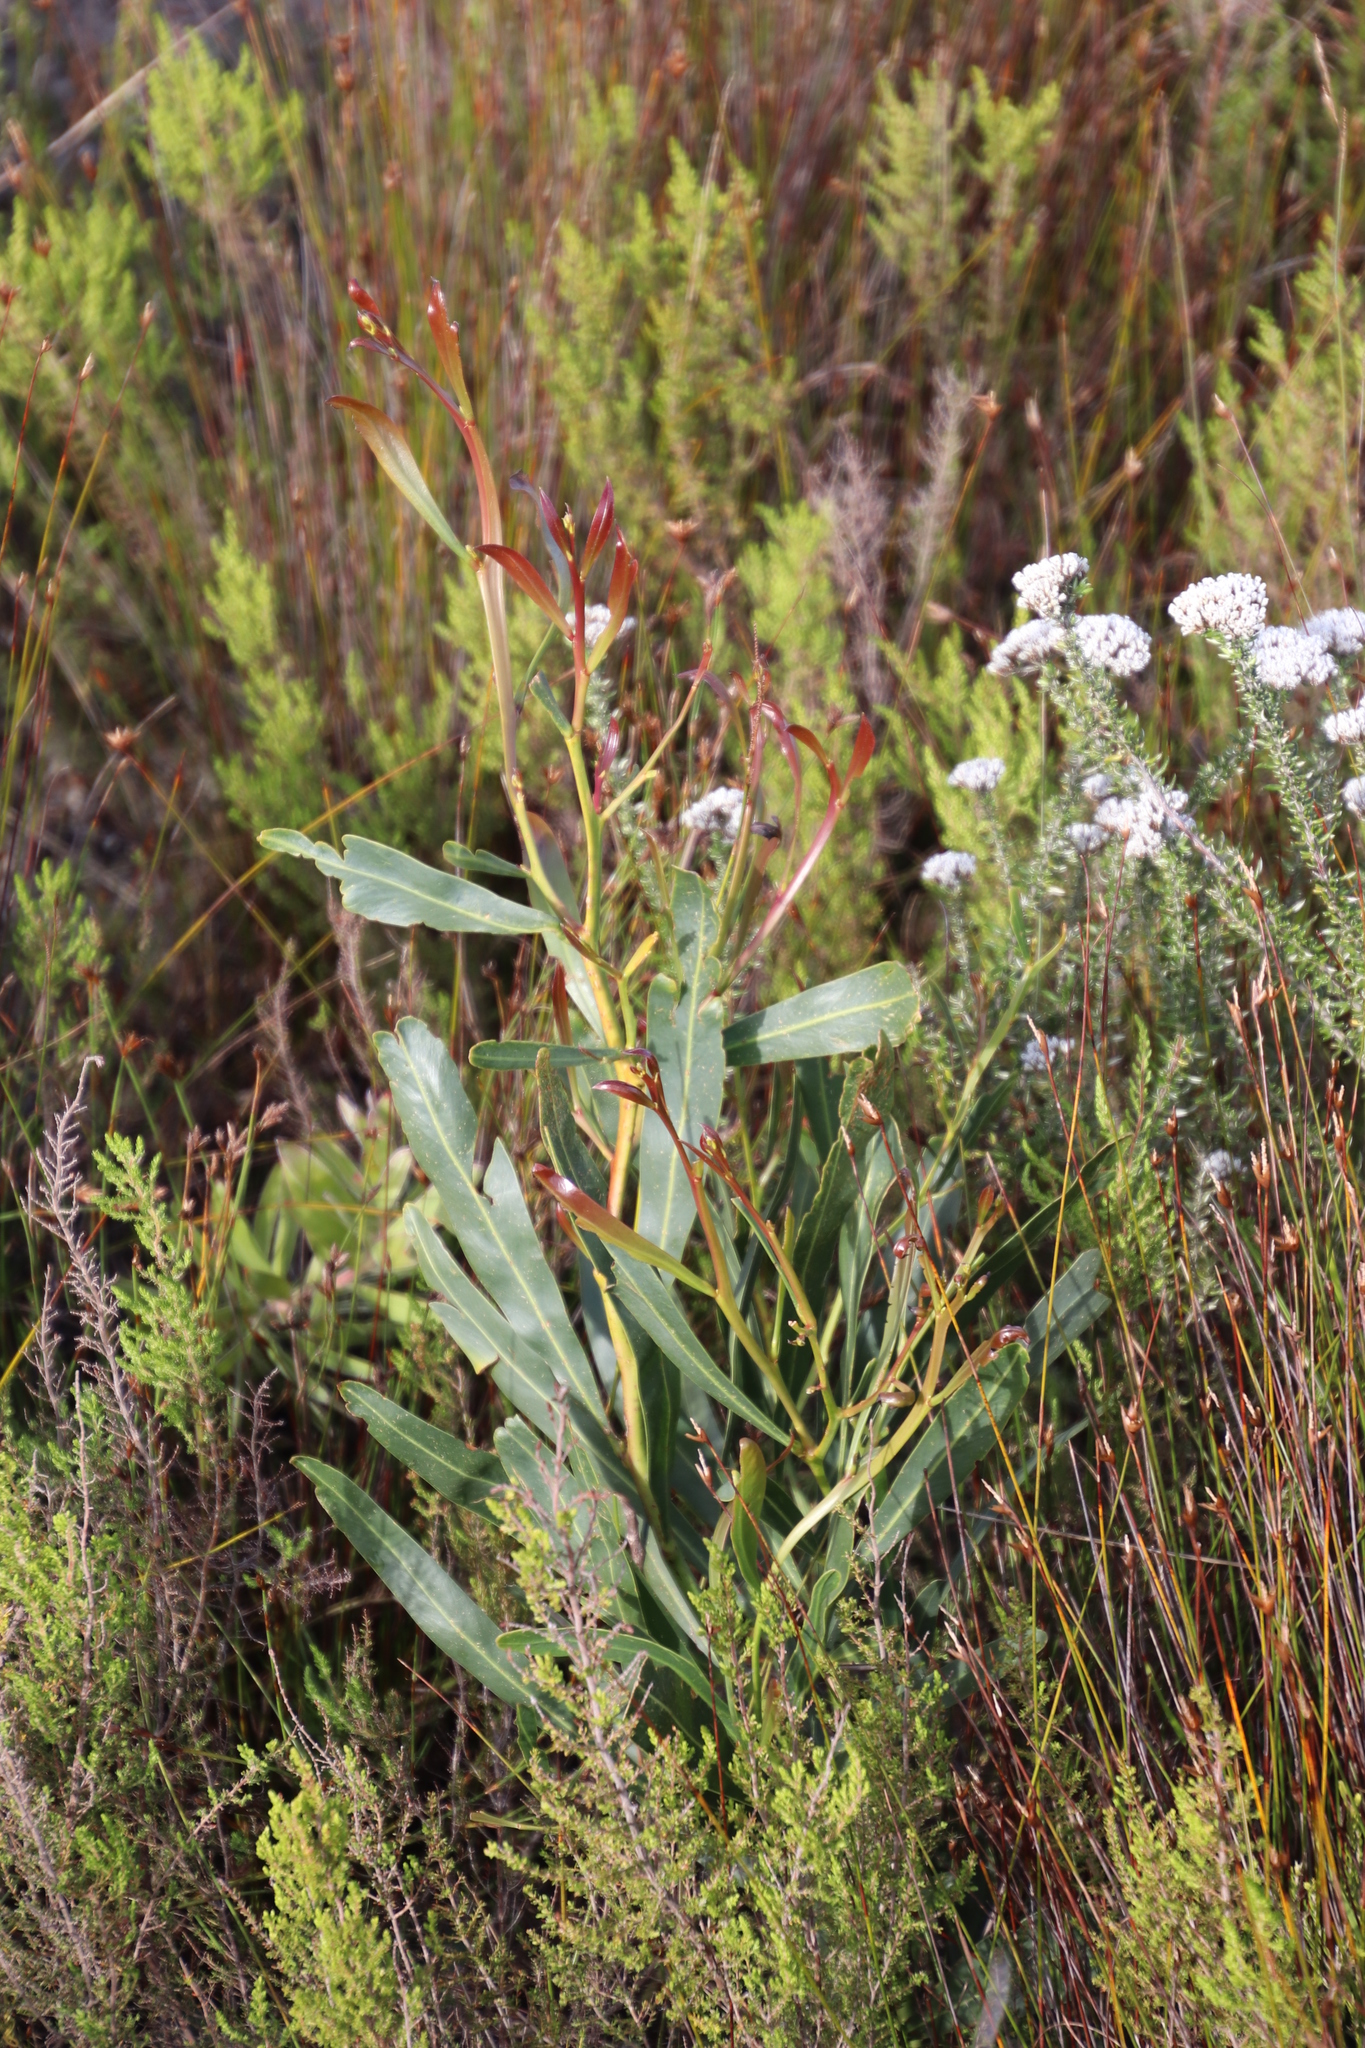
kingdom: Plantae
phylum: Tracheophyta
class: Magnoliopsida
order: Fabales
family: Fabaceae
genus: Acacia
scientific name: Acacia saligna
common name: Orange wattle
